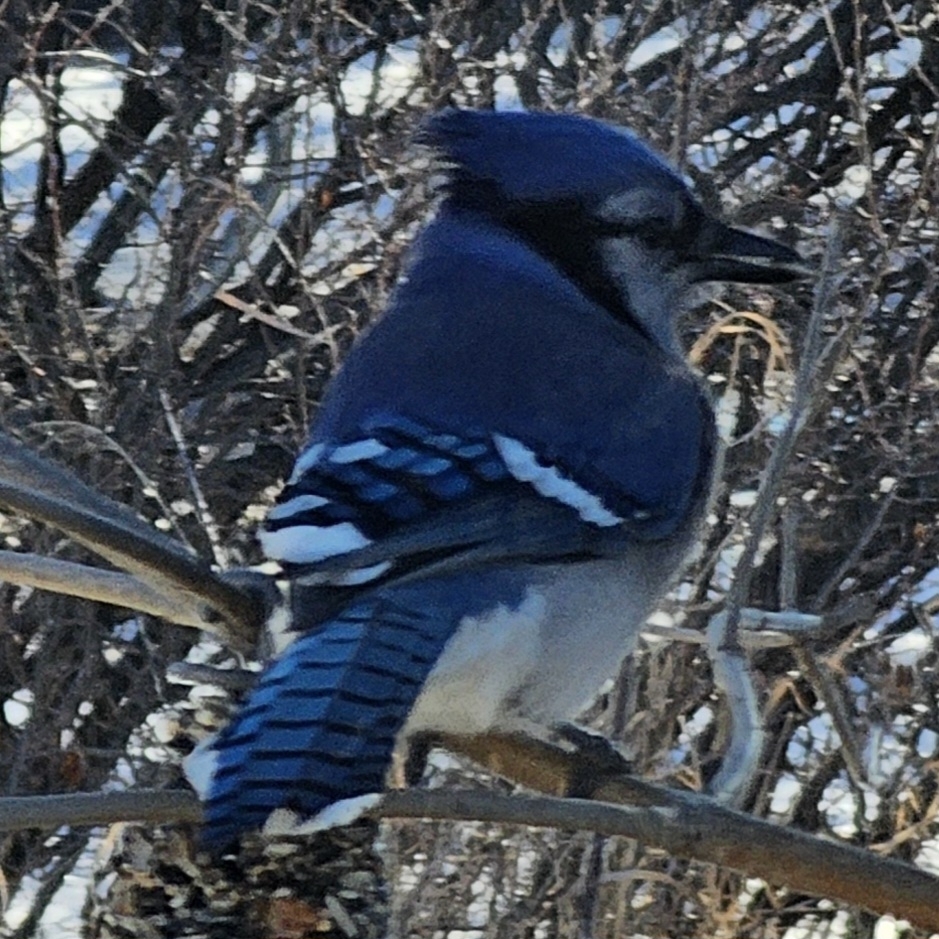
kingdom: Animalia
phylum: Chordata
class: Aves
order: Passeriformes
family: Corvidae
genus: Cyanocitta
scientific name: Cyanocitta cristata
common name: Blue jay
